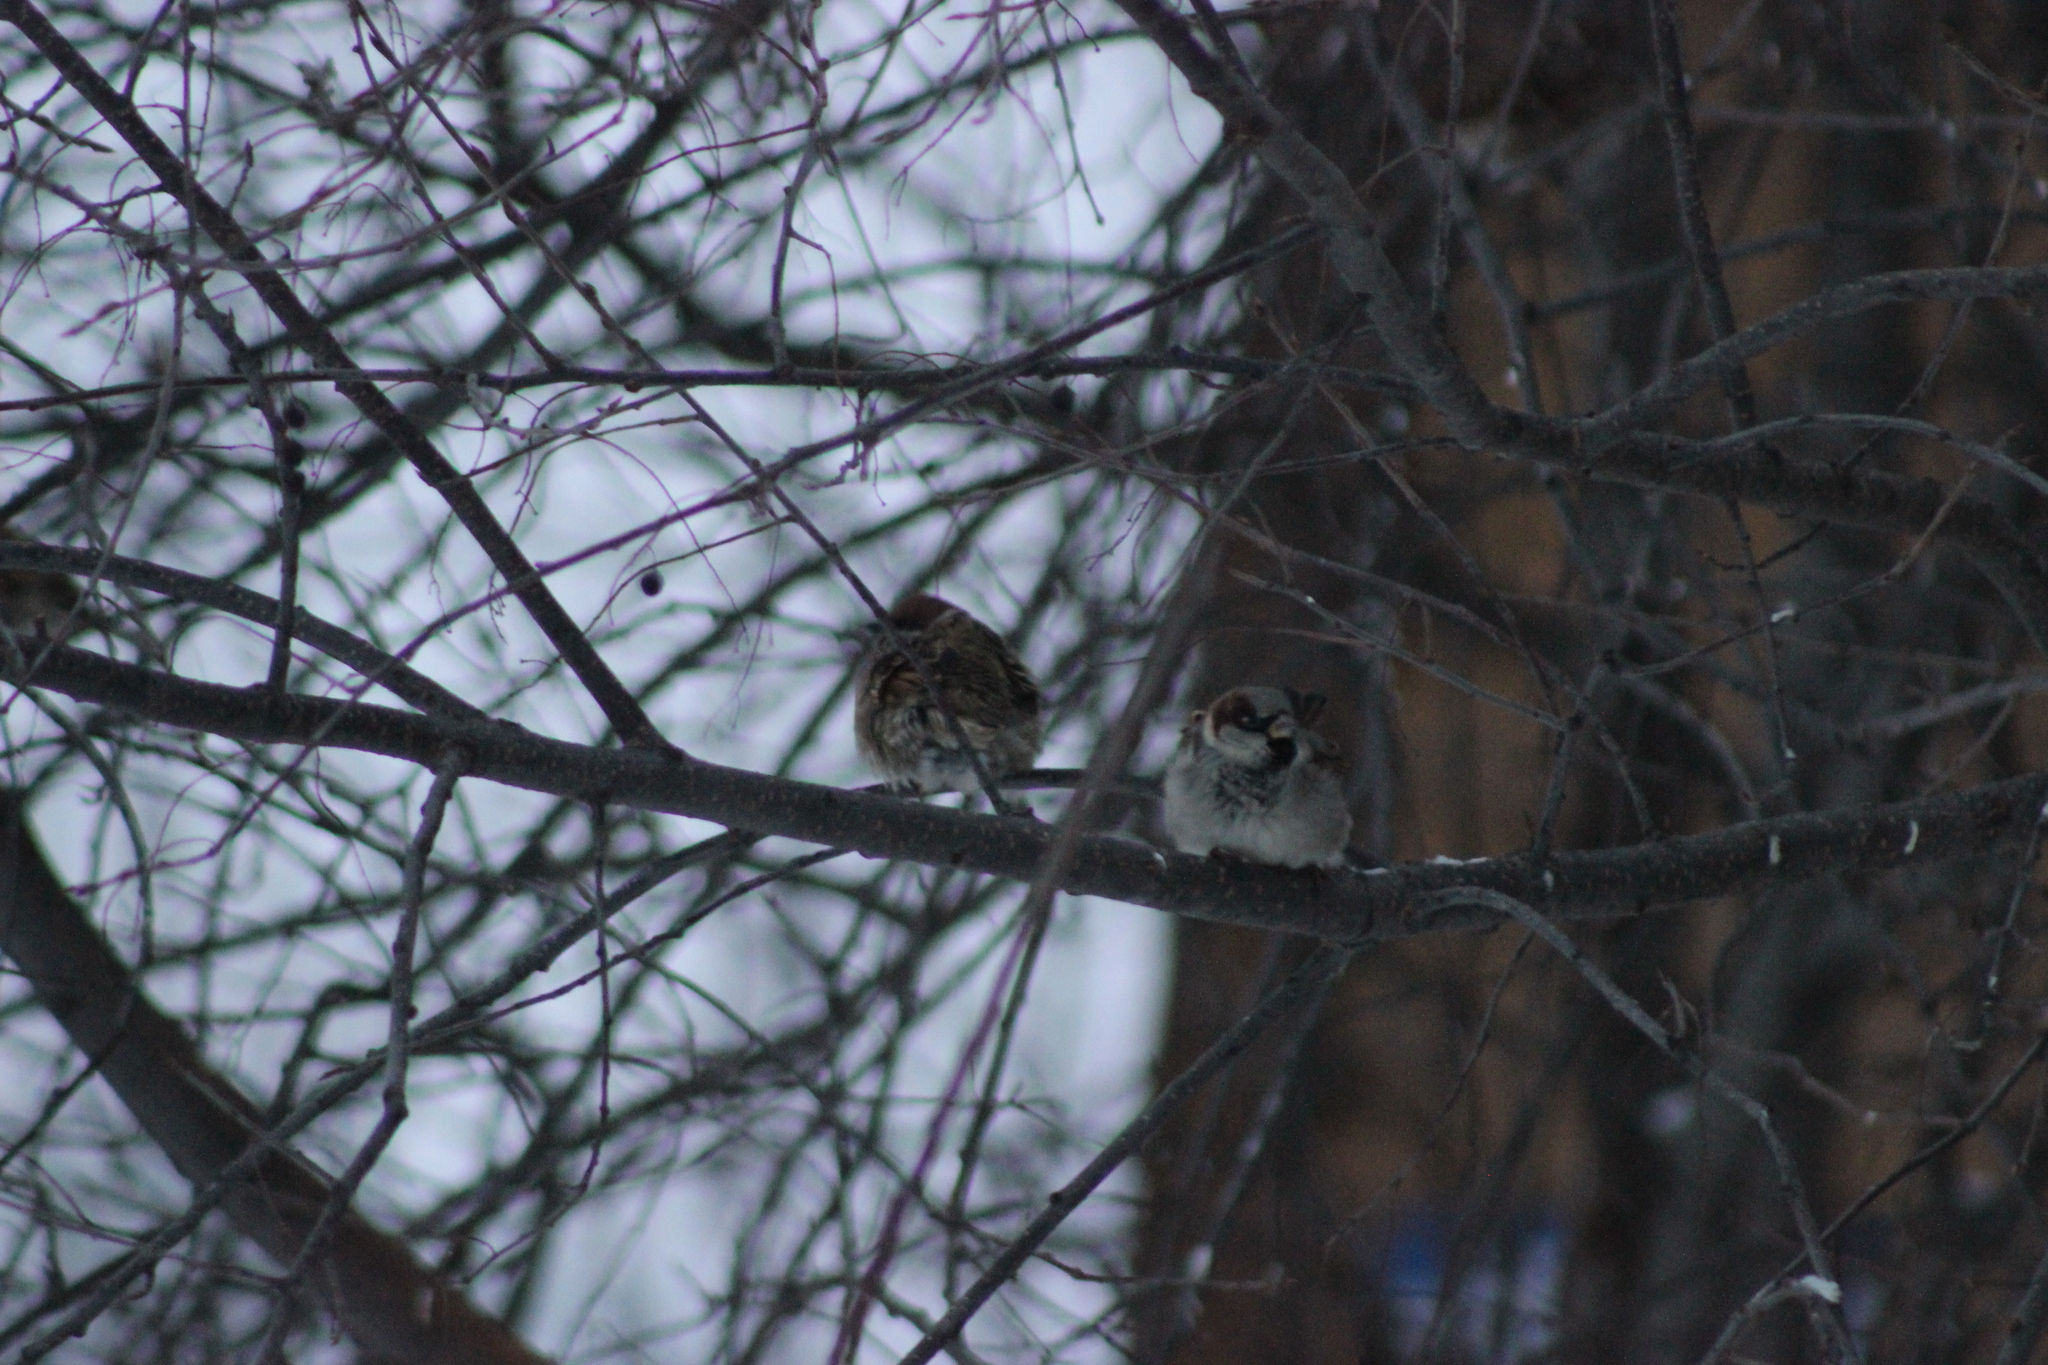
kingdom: Animalia
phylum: Chordata
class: Aves
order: Passeriformes
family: Passeridae
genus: Passer
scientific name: Passer domesticus
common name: House sparrow
